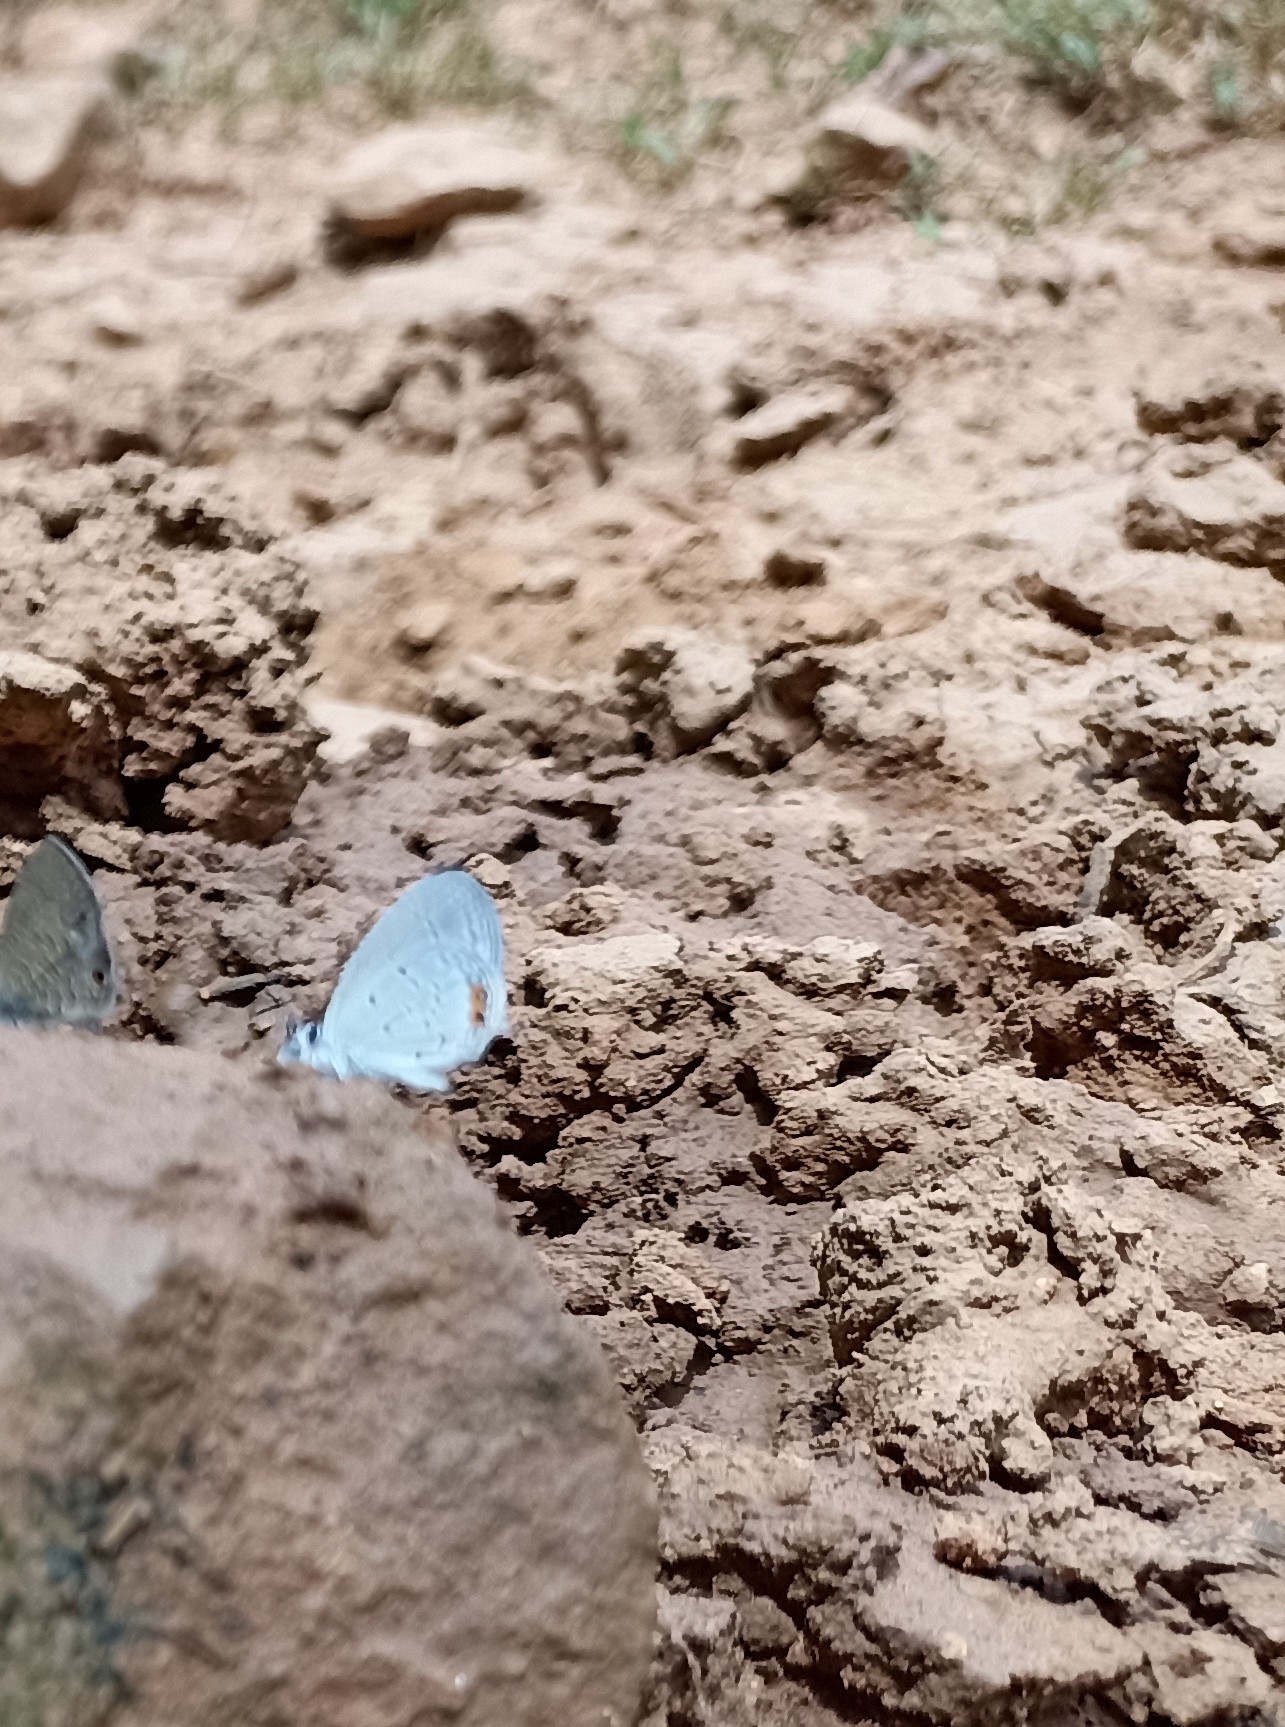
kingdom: Animalia
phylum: Arthropoda
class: Insecta
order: Lepidoptera
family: Lycaenidae
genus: Everes
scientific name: Everes lacturnus
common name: Orange-tipped pea-blue
